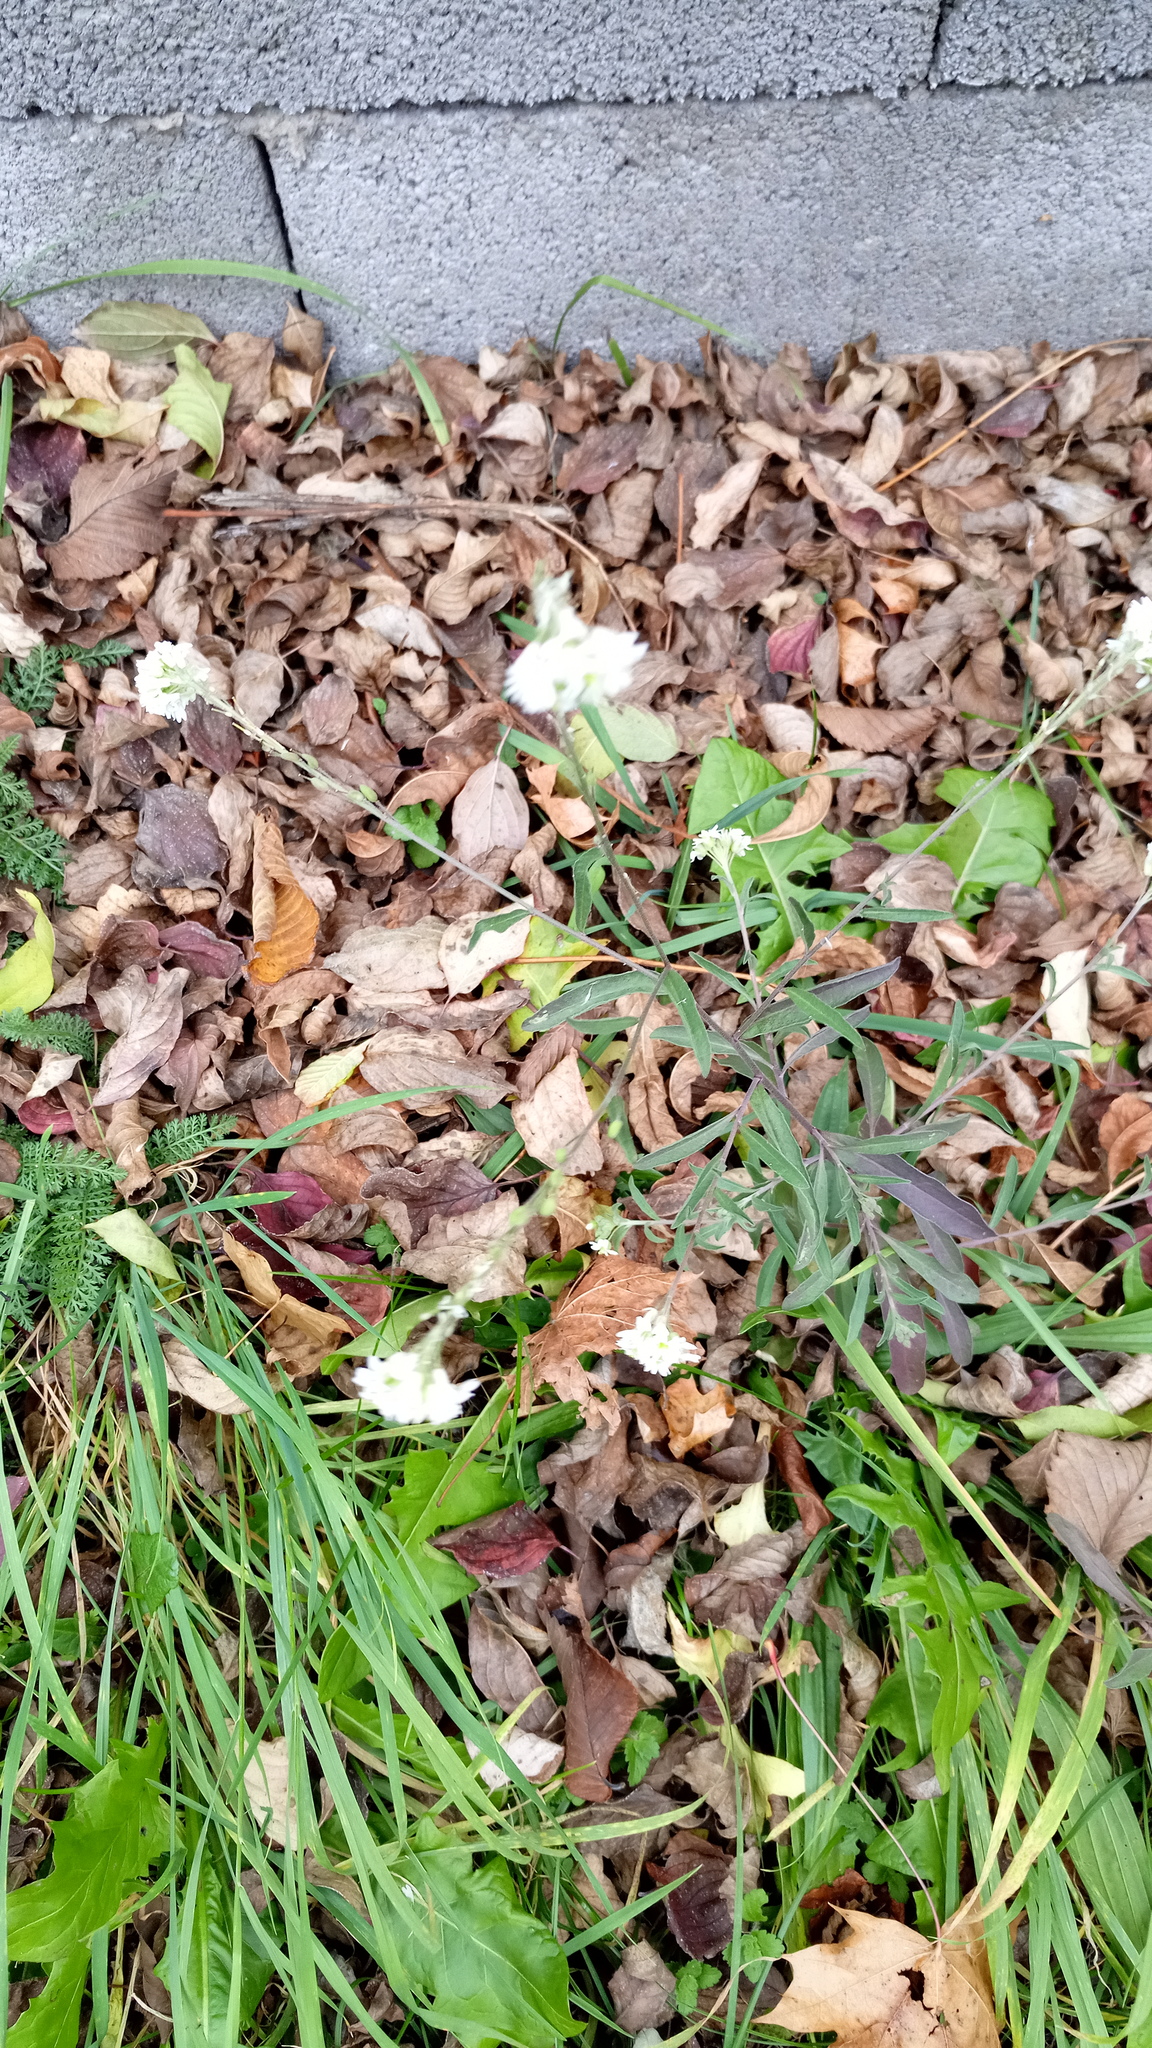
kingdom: Plantae
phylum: Tracheophyta
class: Magnoliopsida
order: Brassicales
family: Brassicaceae
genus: Berteroa
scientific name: Berteroa incana
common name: Hoary alison
